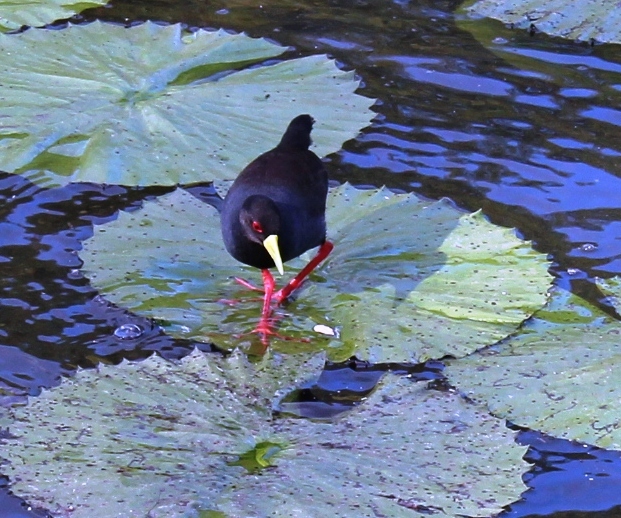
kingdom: Animalia
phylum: Chordata
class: Aves
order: Gruiformes
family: Rallidae
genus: Amaurornis
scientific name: Amaurornis flavirostra
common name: Black crake
